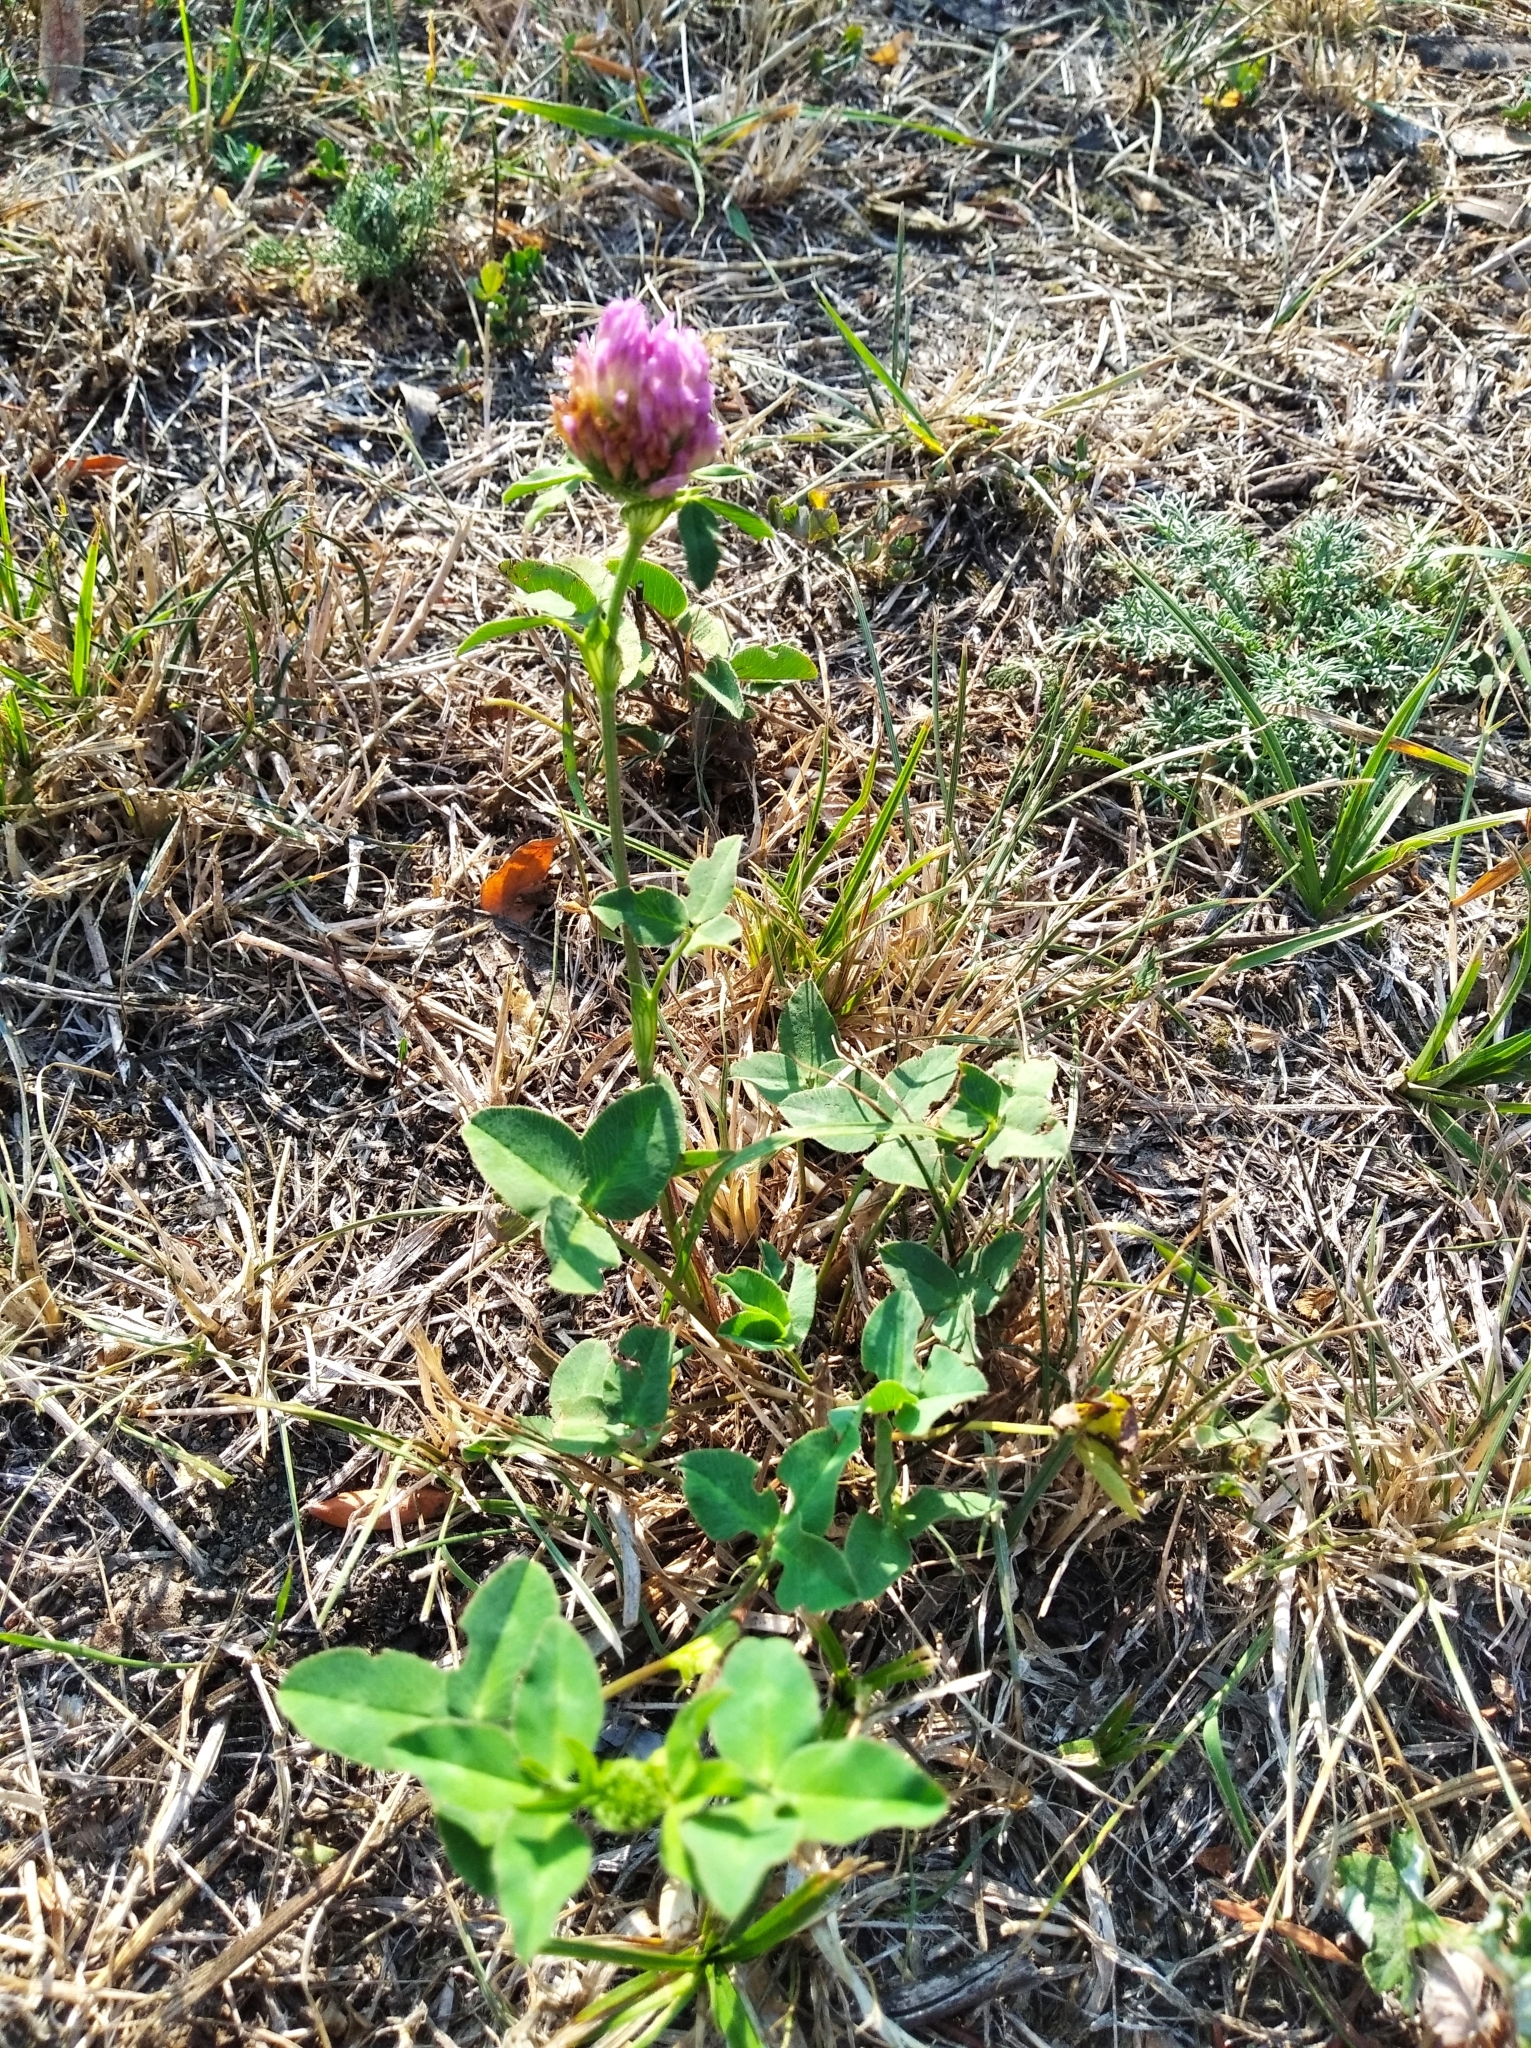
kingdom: Plantae
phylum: Tracheophyta
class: Magnoliopsida
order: Fabales
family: Fabaceae
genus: Trifolium
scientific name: Trifolium pratense
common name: Red clover
